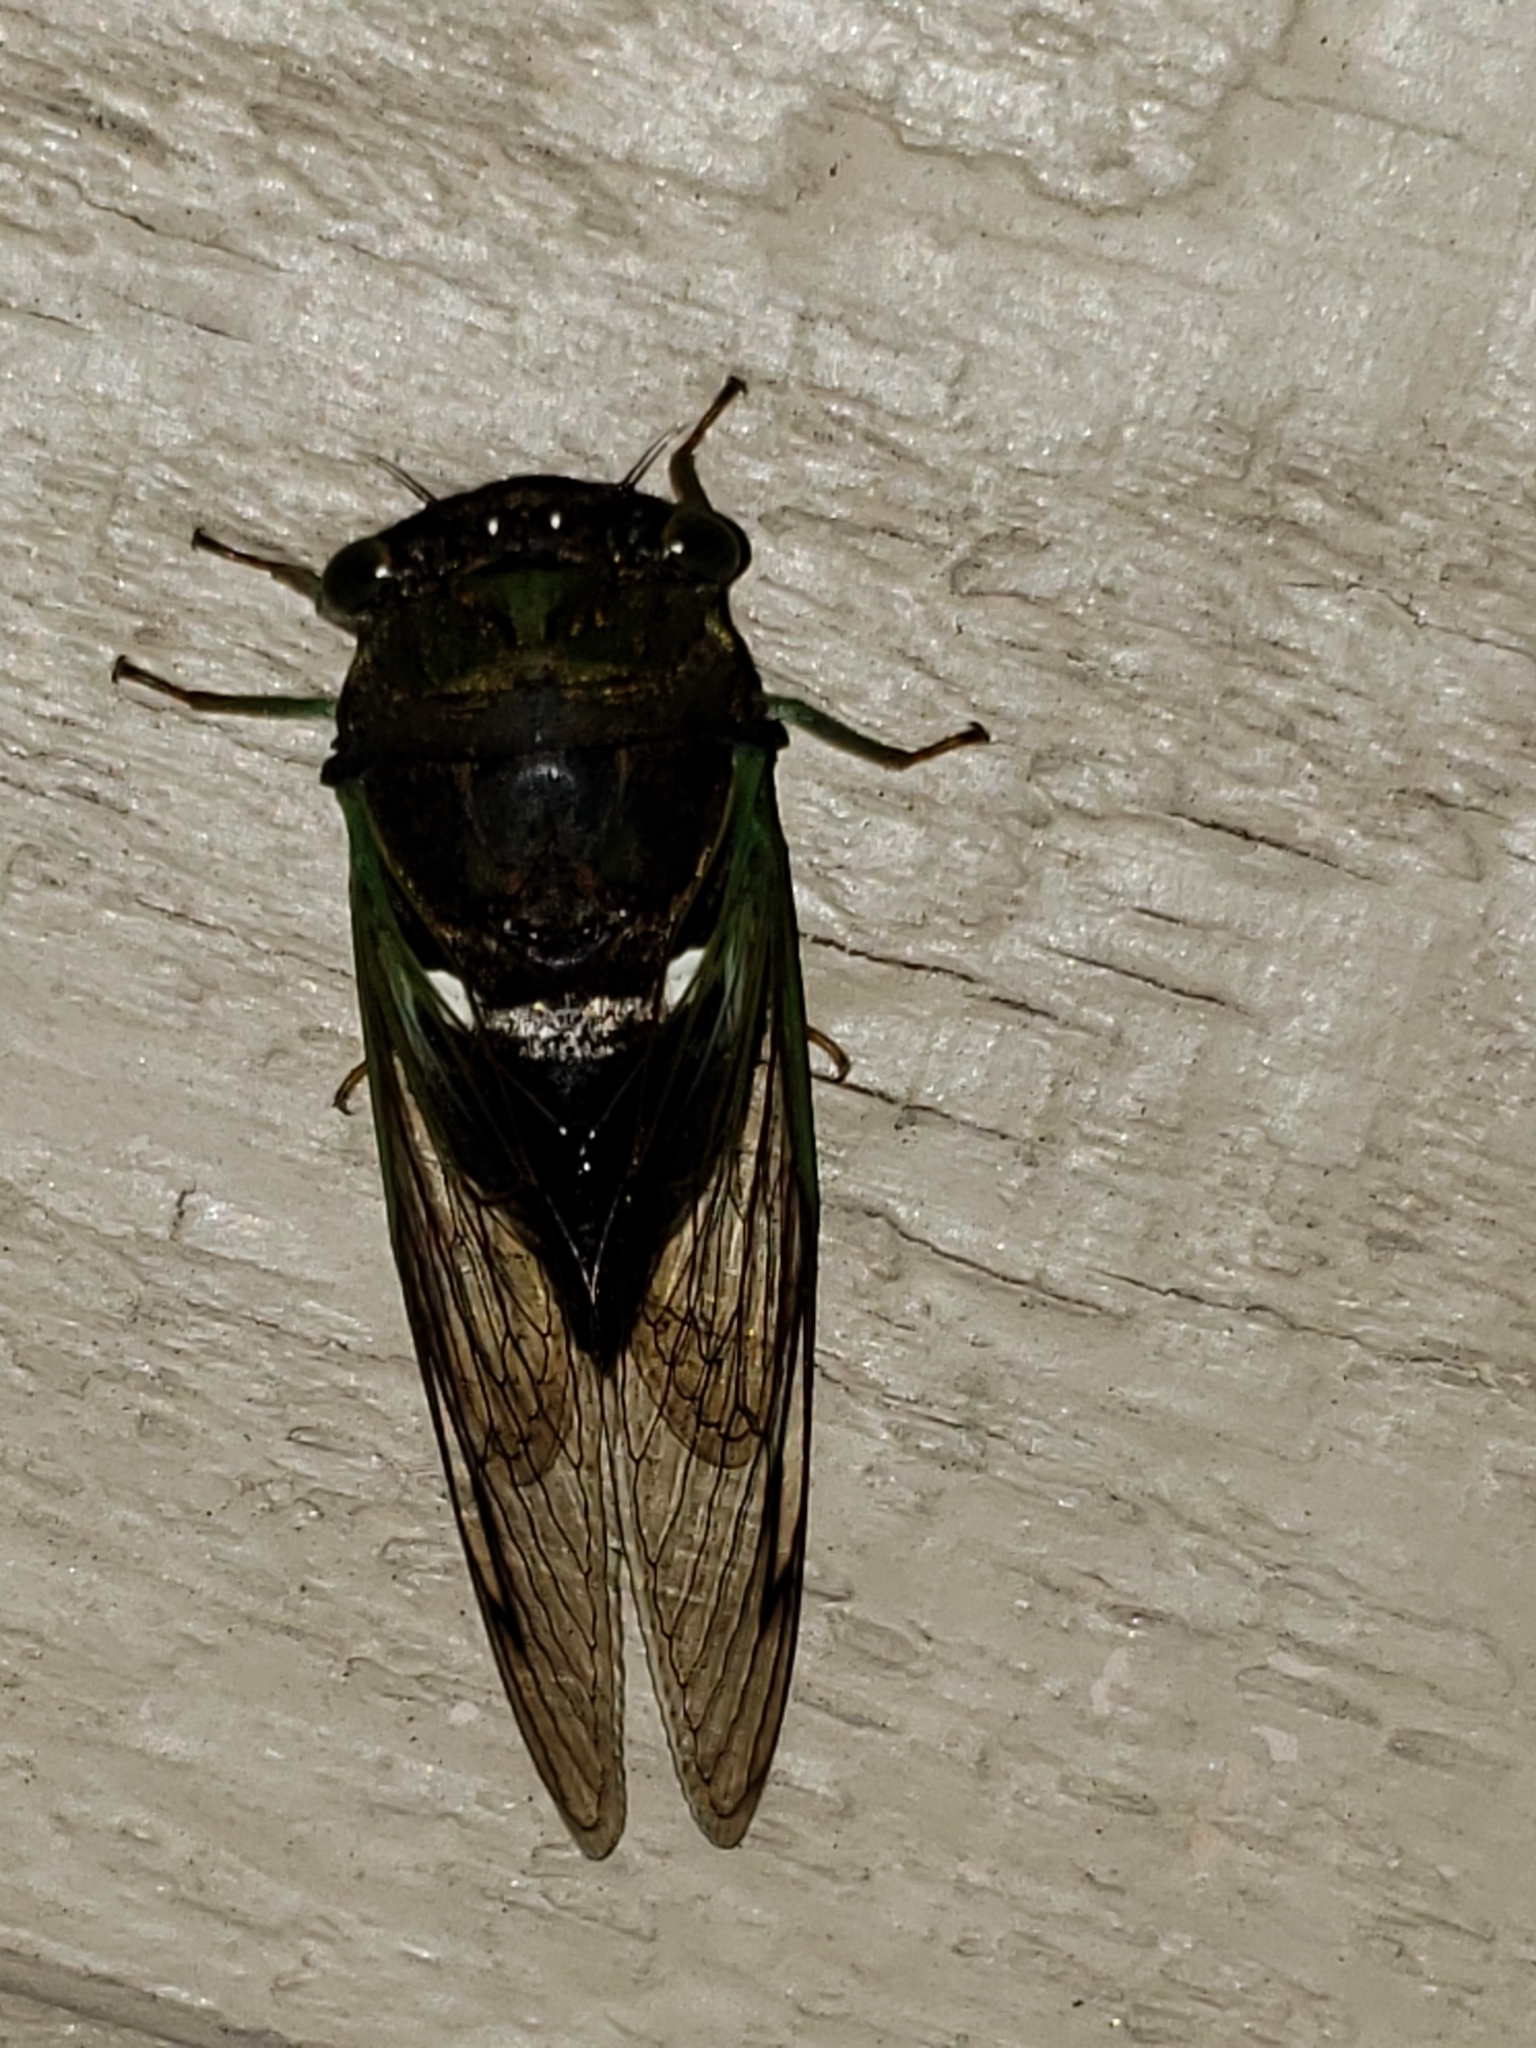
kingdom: Animalia
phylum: Arthropoda
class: Insecta
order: Hemiptera
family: Cicadidae
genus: Neotibicen
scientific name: Neotibicen tibicen
